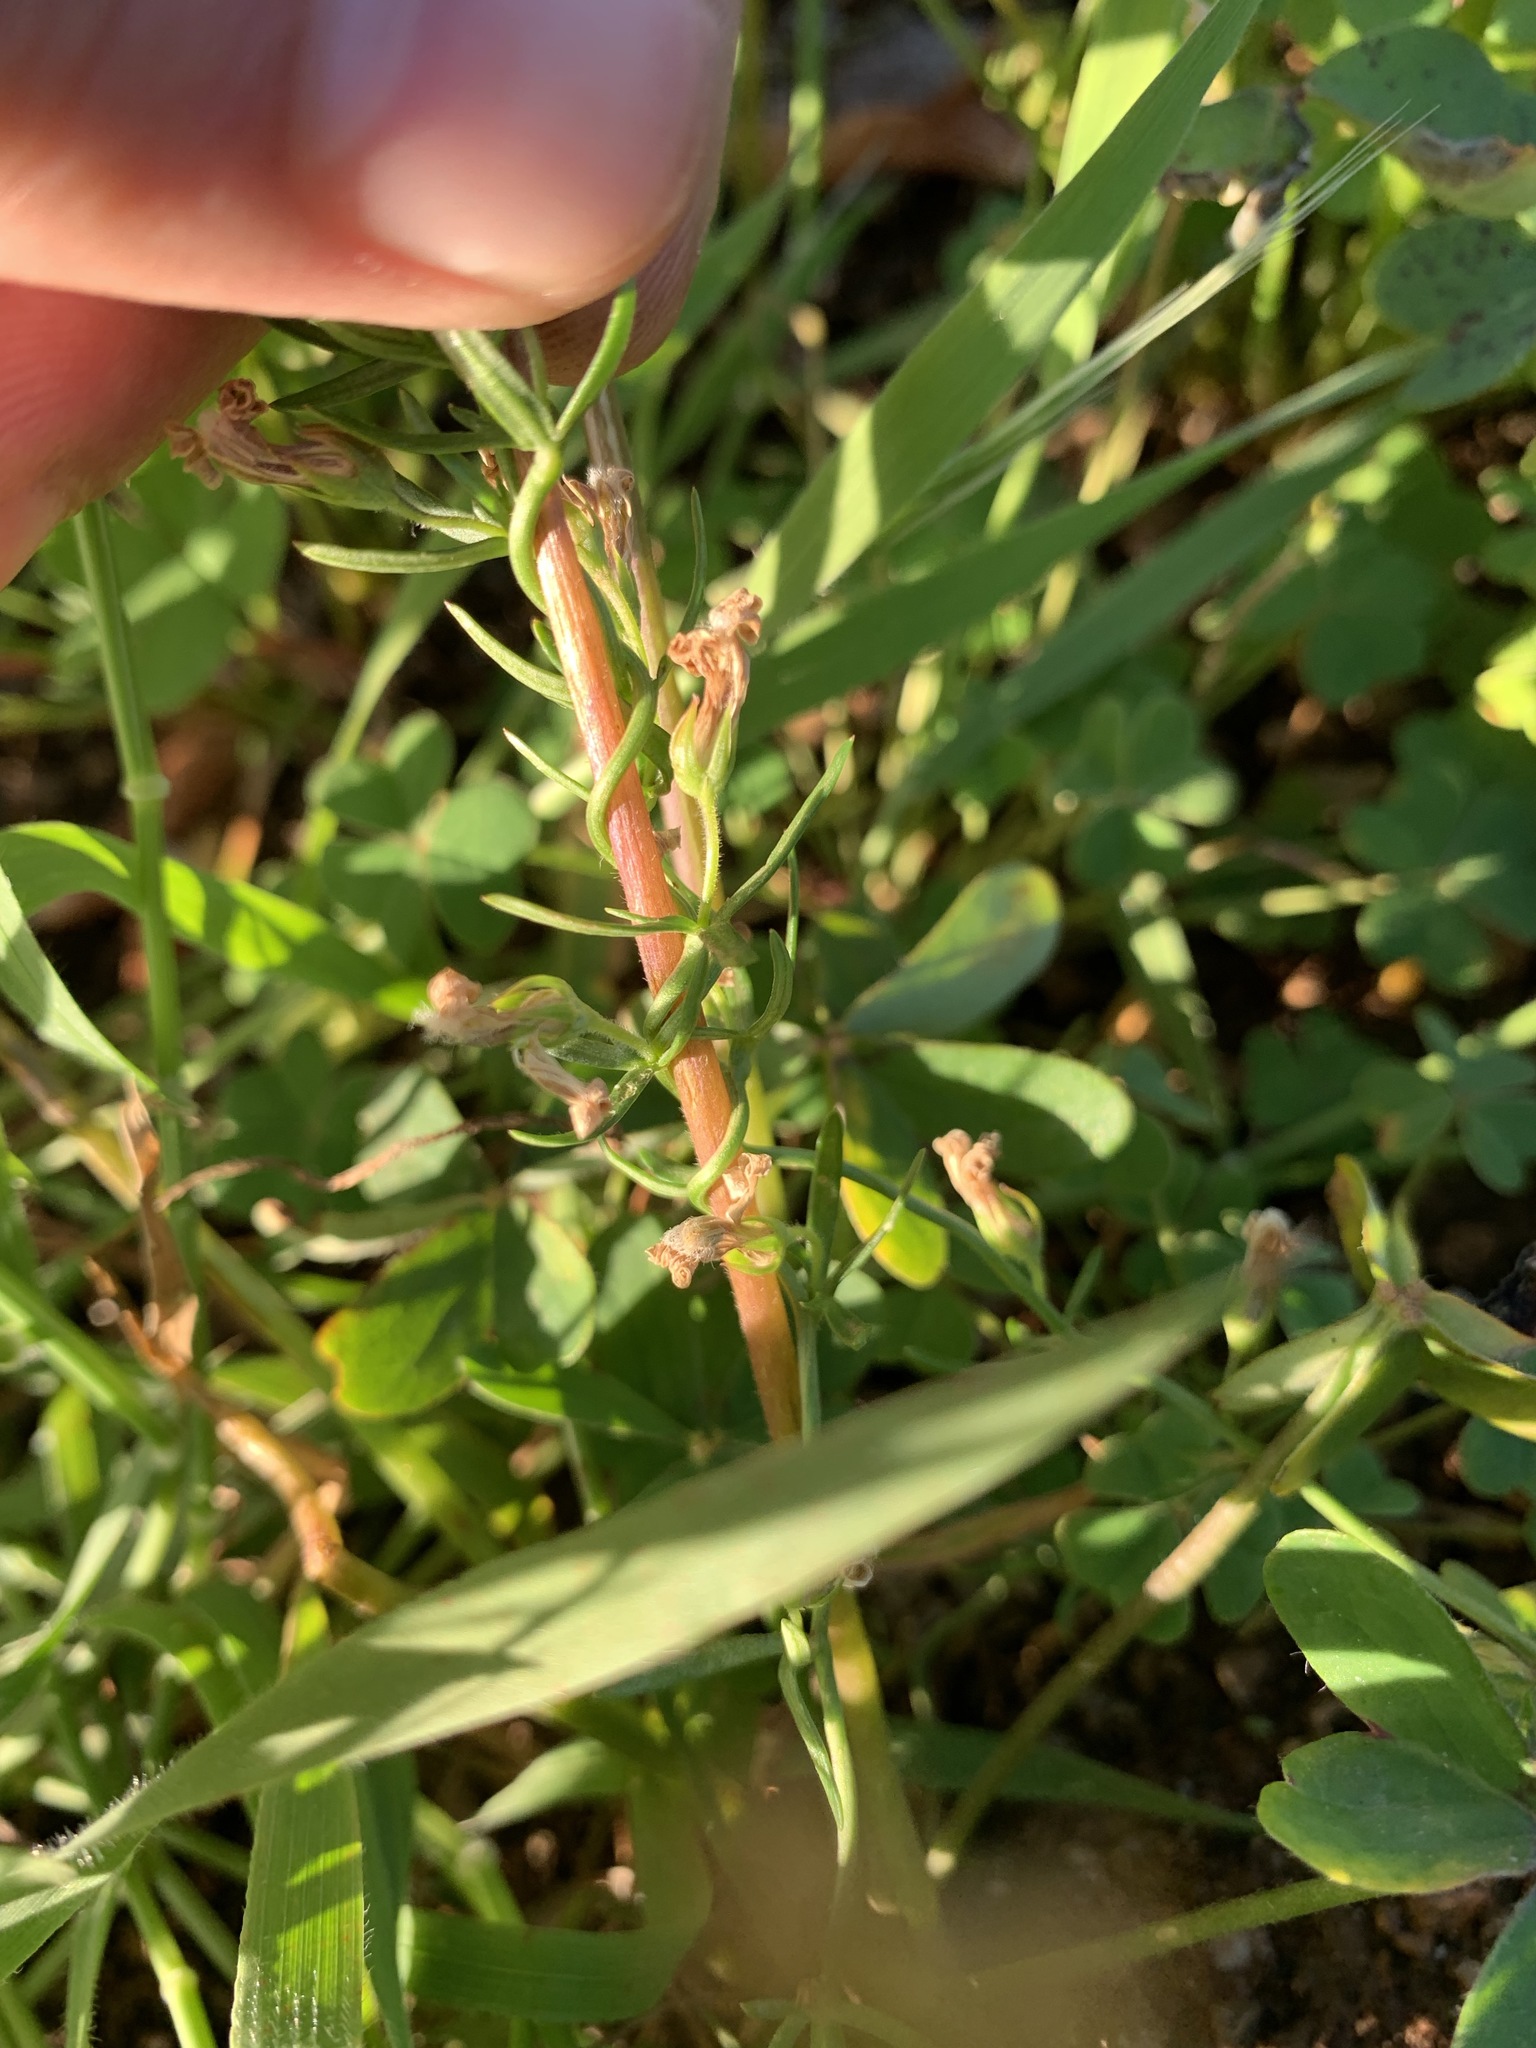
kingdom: Plantae
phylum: Tracheophyta
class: Magnoliopsida
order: Asterales
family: Campanulaceae
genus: Cyphia
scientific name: Cyphia digitata
